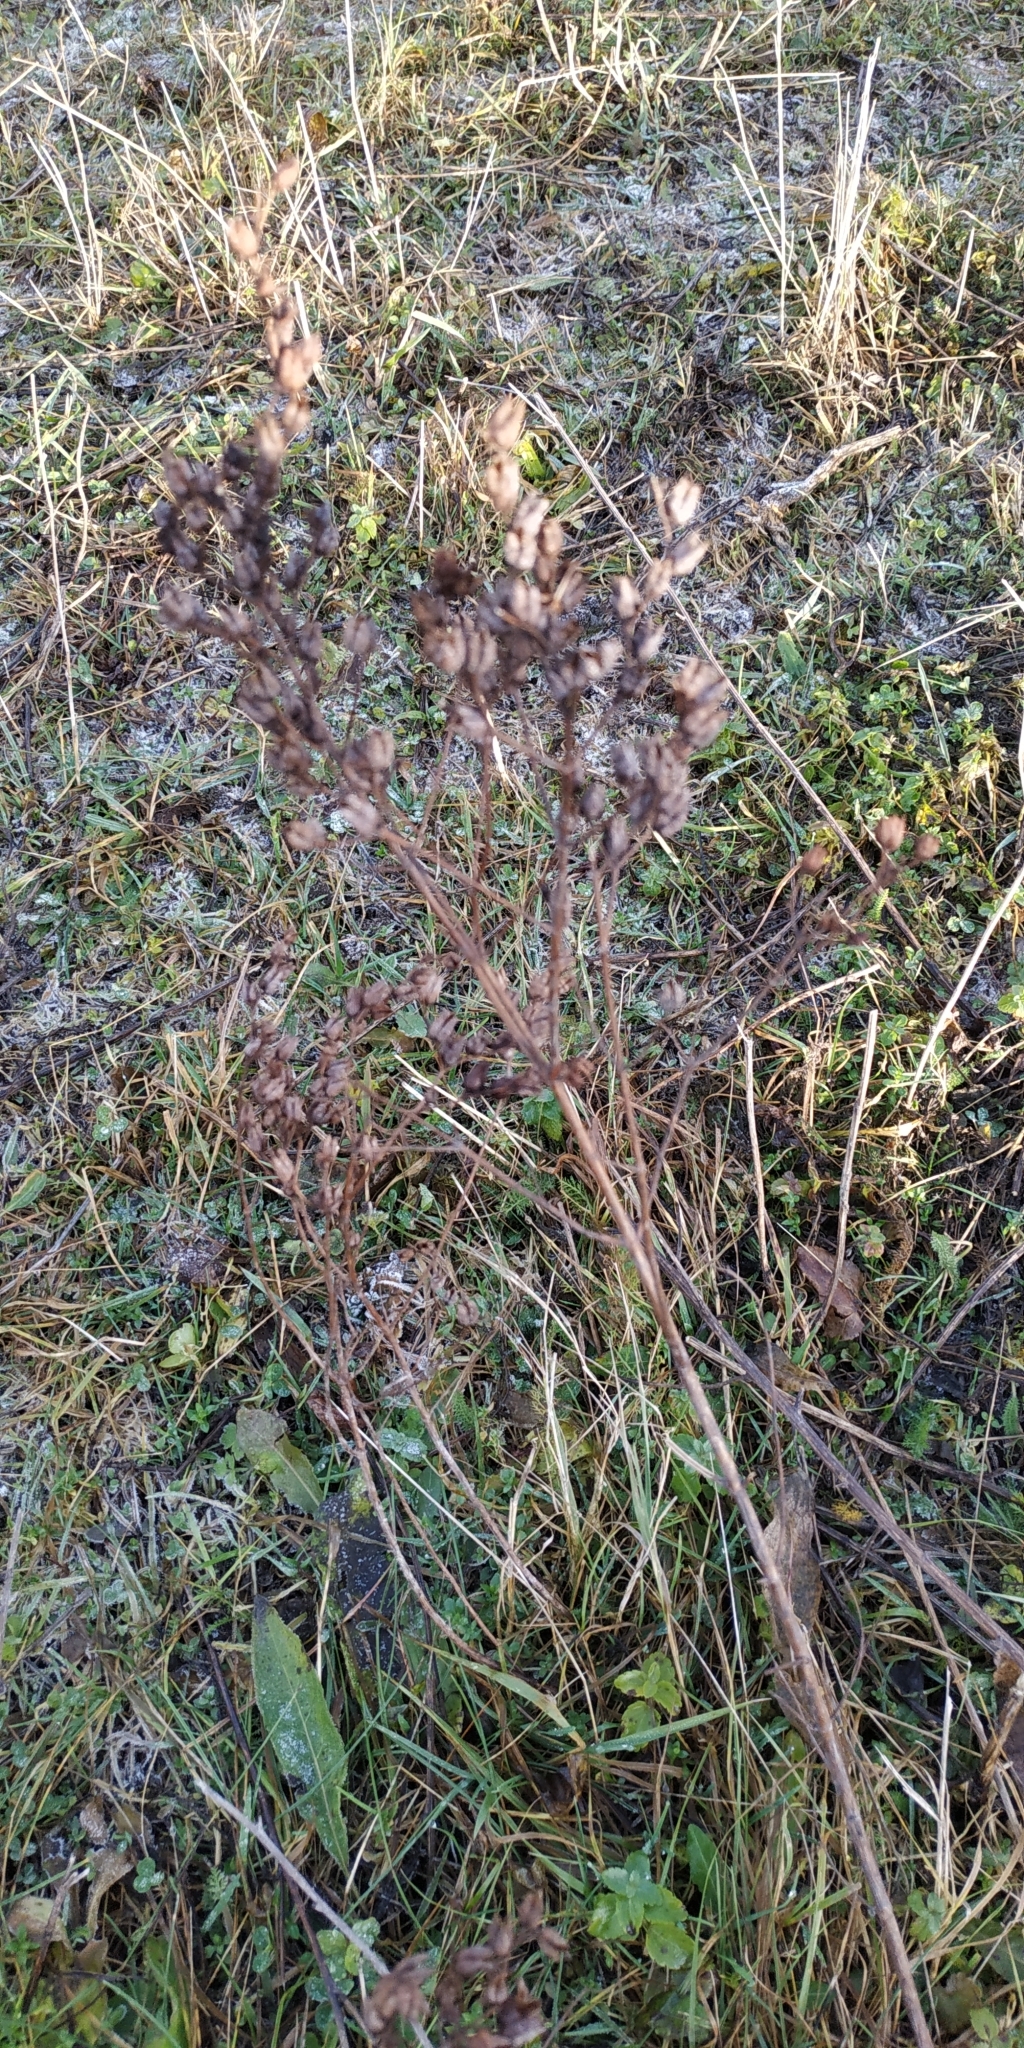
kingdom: Plantae
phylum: Tracheophyta
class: Magnoliopsida
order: Malpighiales
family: Hypericaceae
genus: Hypericum
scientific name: Hypericum perforatum
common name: Common st. johnswort
